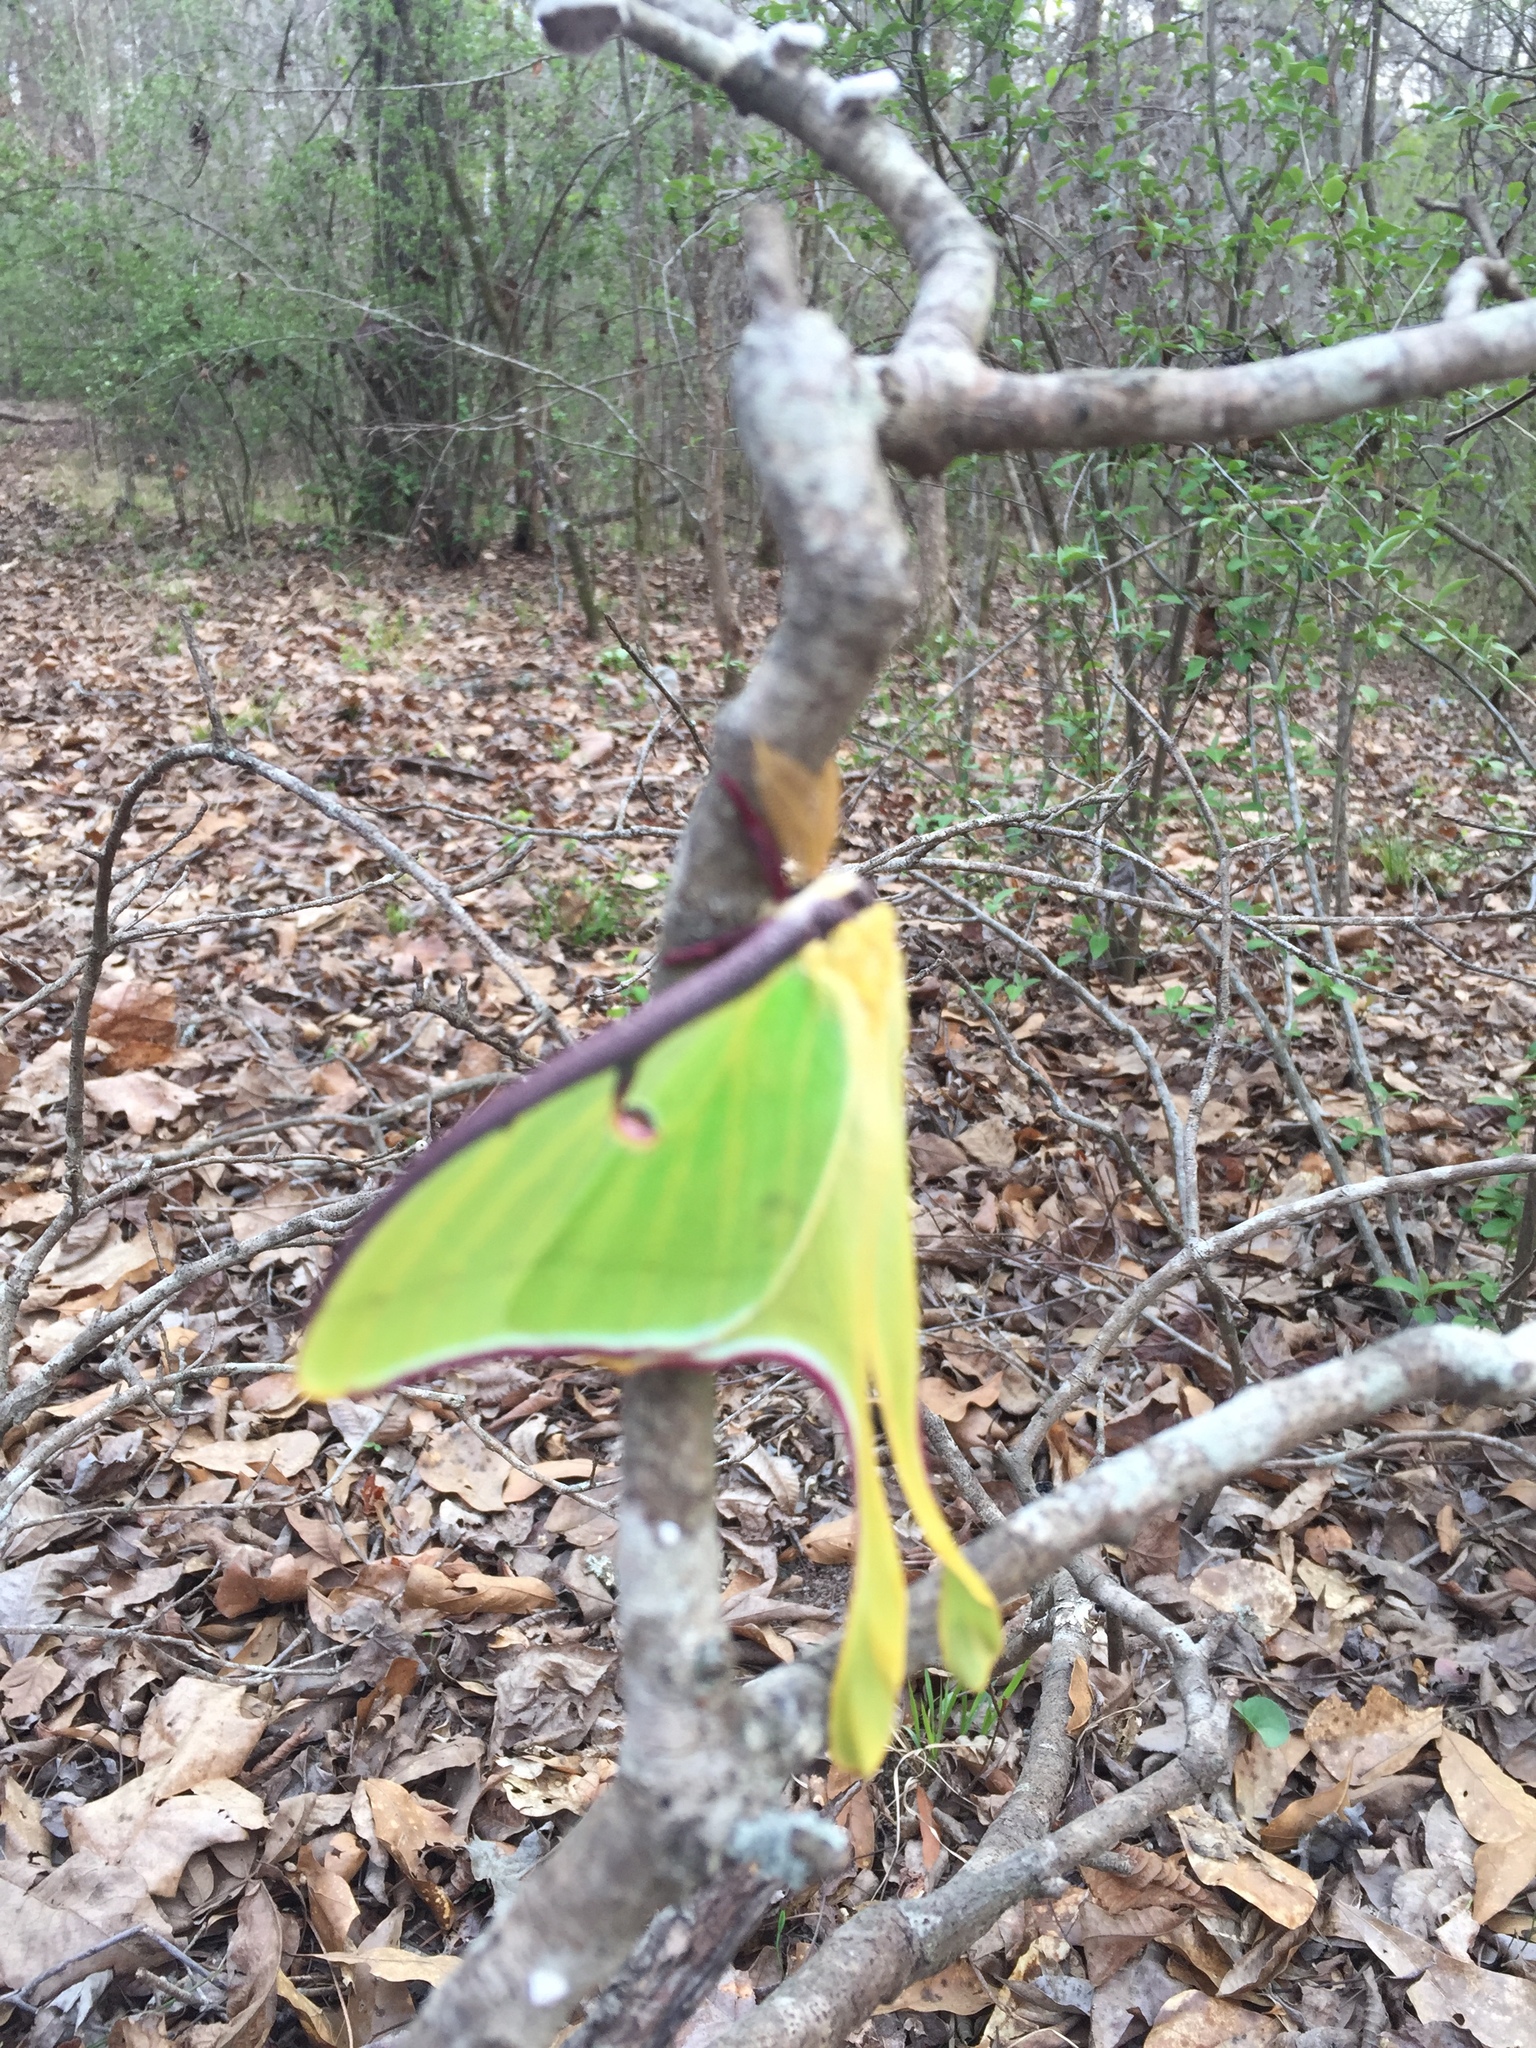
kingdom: Animalia
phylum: Arthropoda
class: Insecta
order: Lepidoptera
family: Saturniidae
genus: Actias
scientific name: Actias luna
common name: Luna moth
